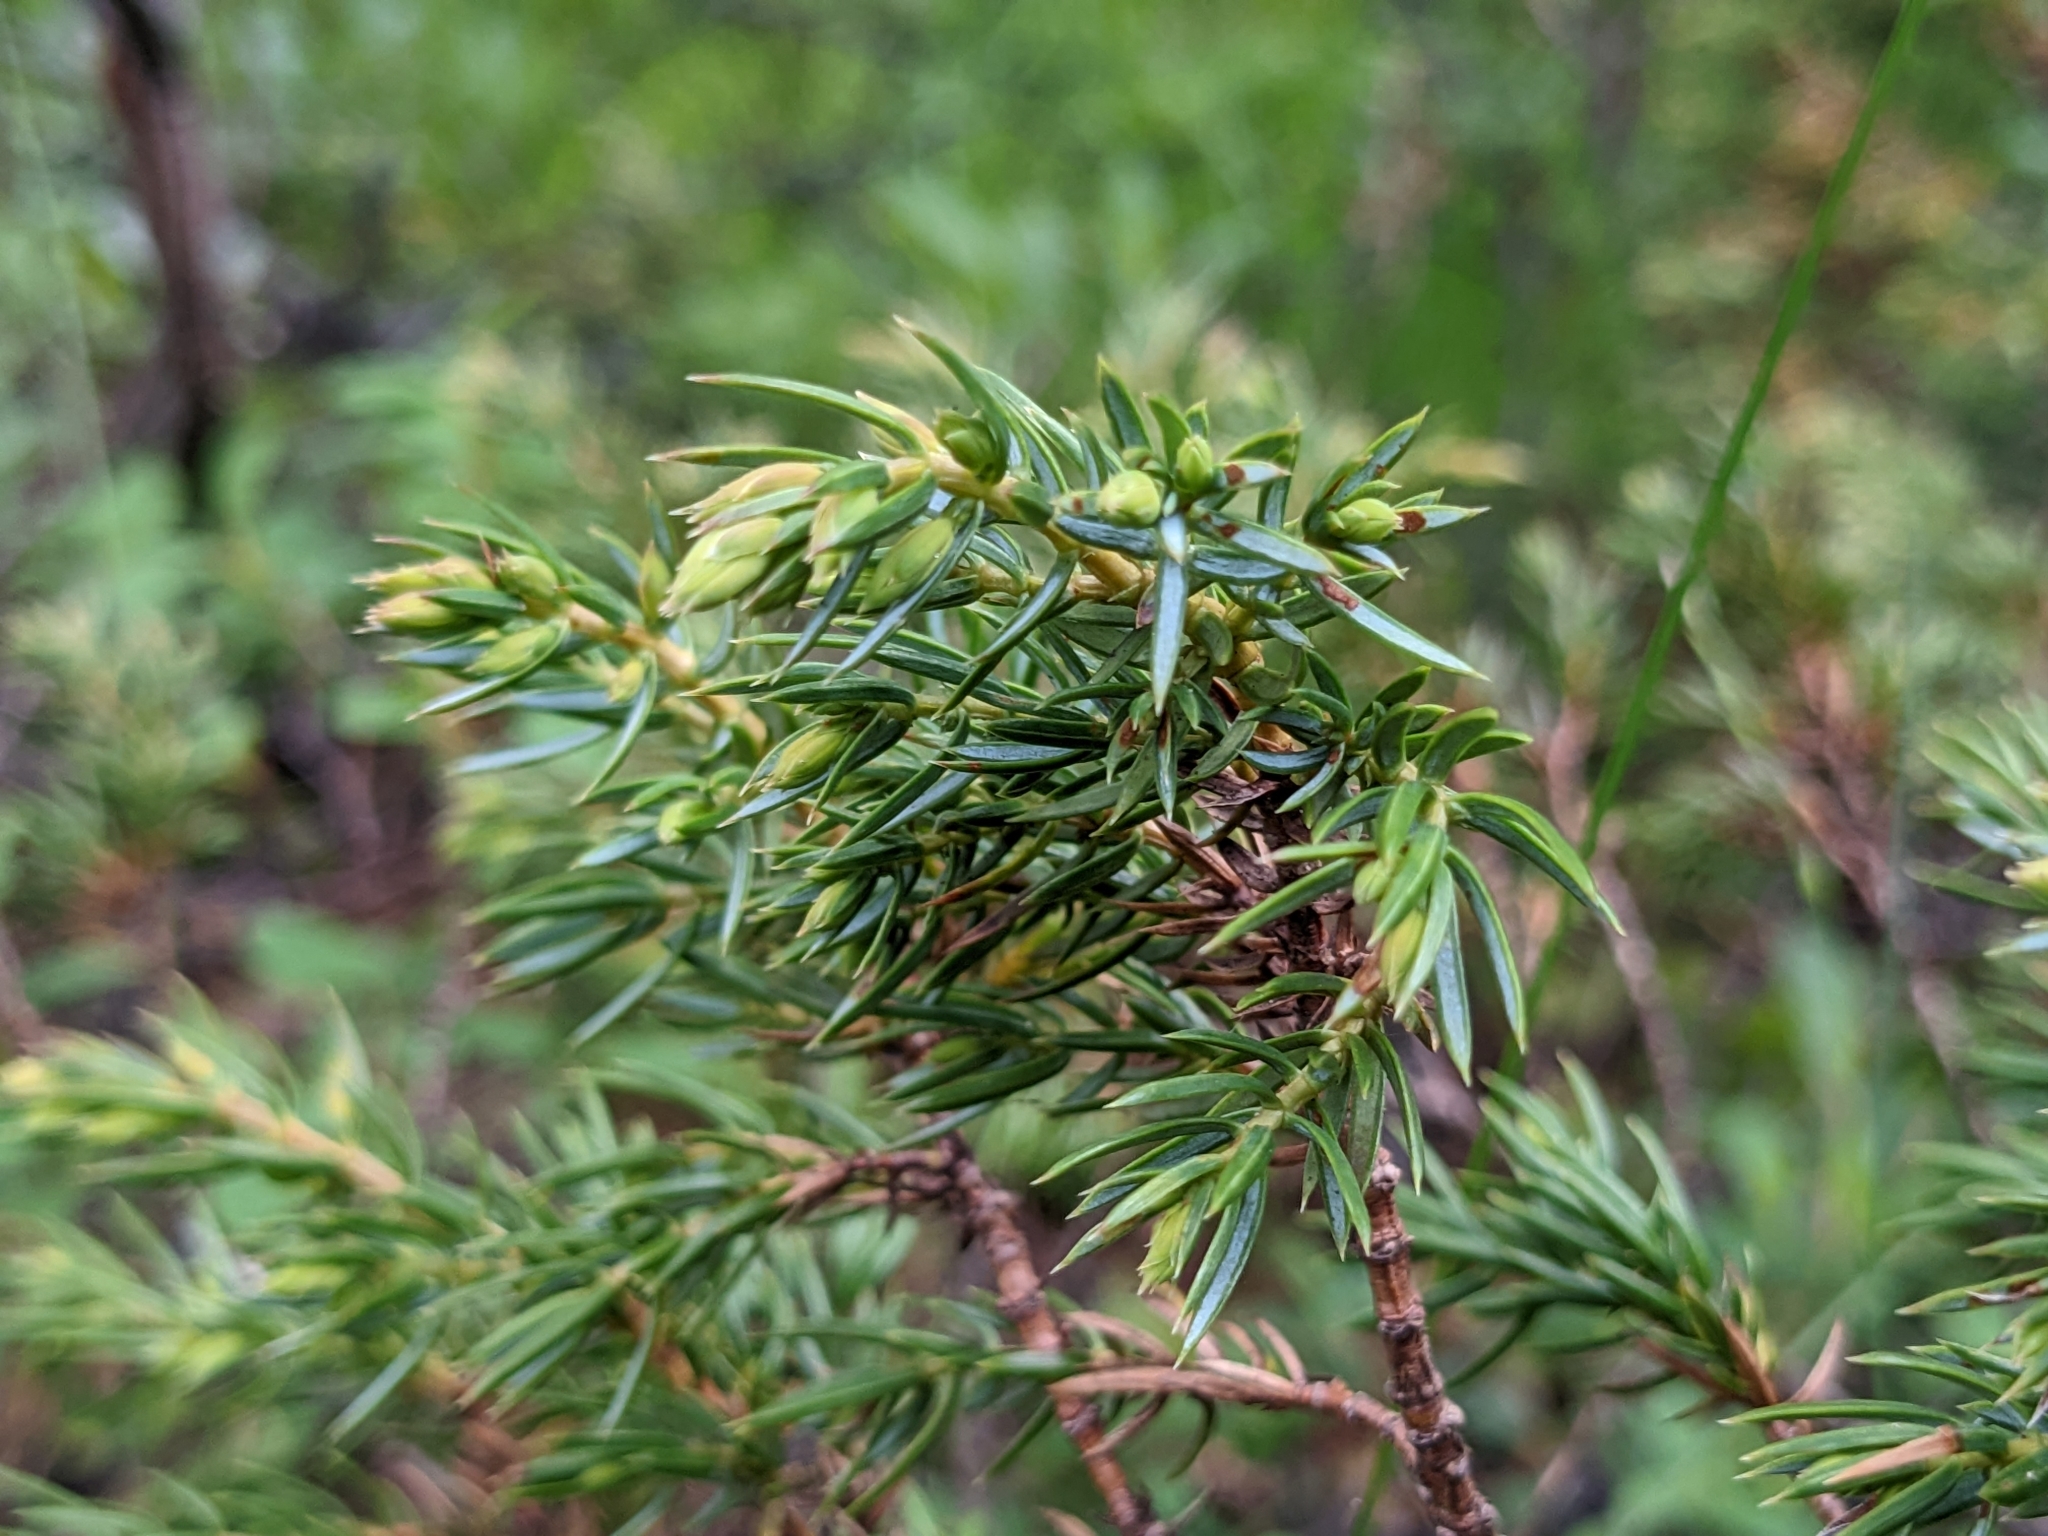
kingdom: Plantae
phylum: Tracheophyta
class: Pinopsida
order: Pinales
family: Cupressaceae
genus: Juniperus
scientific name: Juniperus communis
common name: Common juniper
